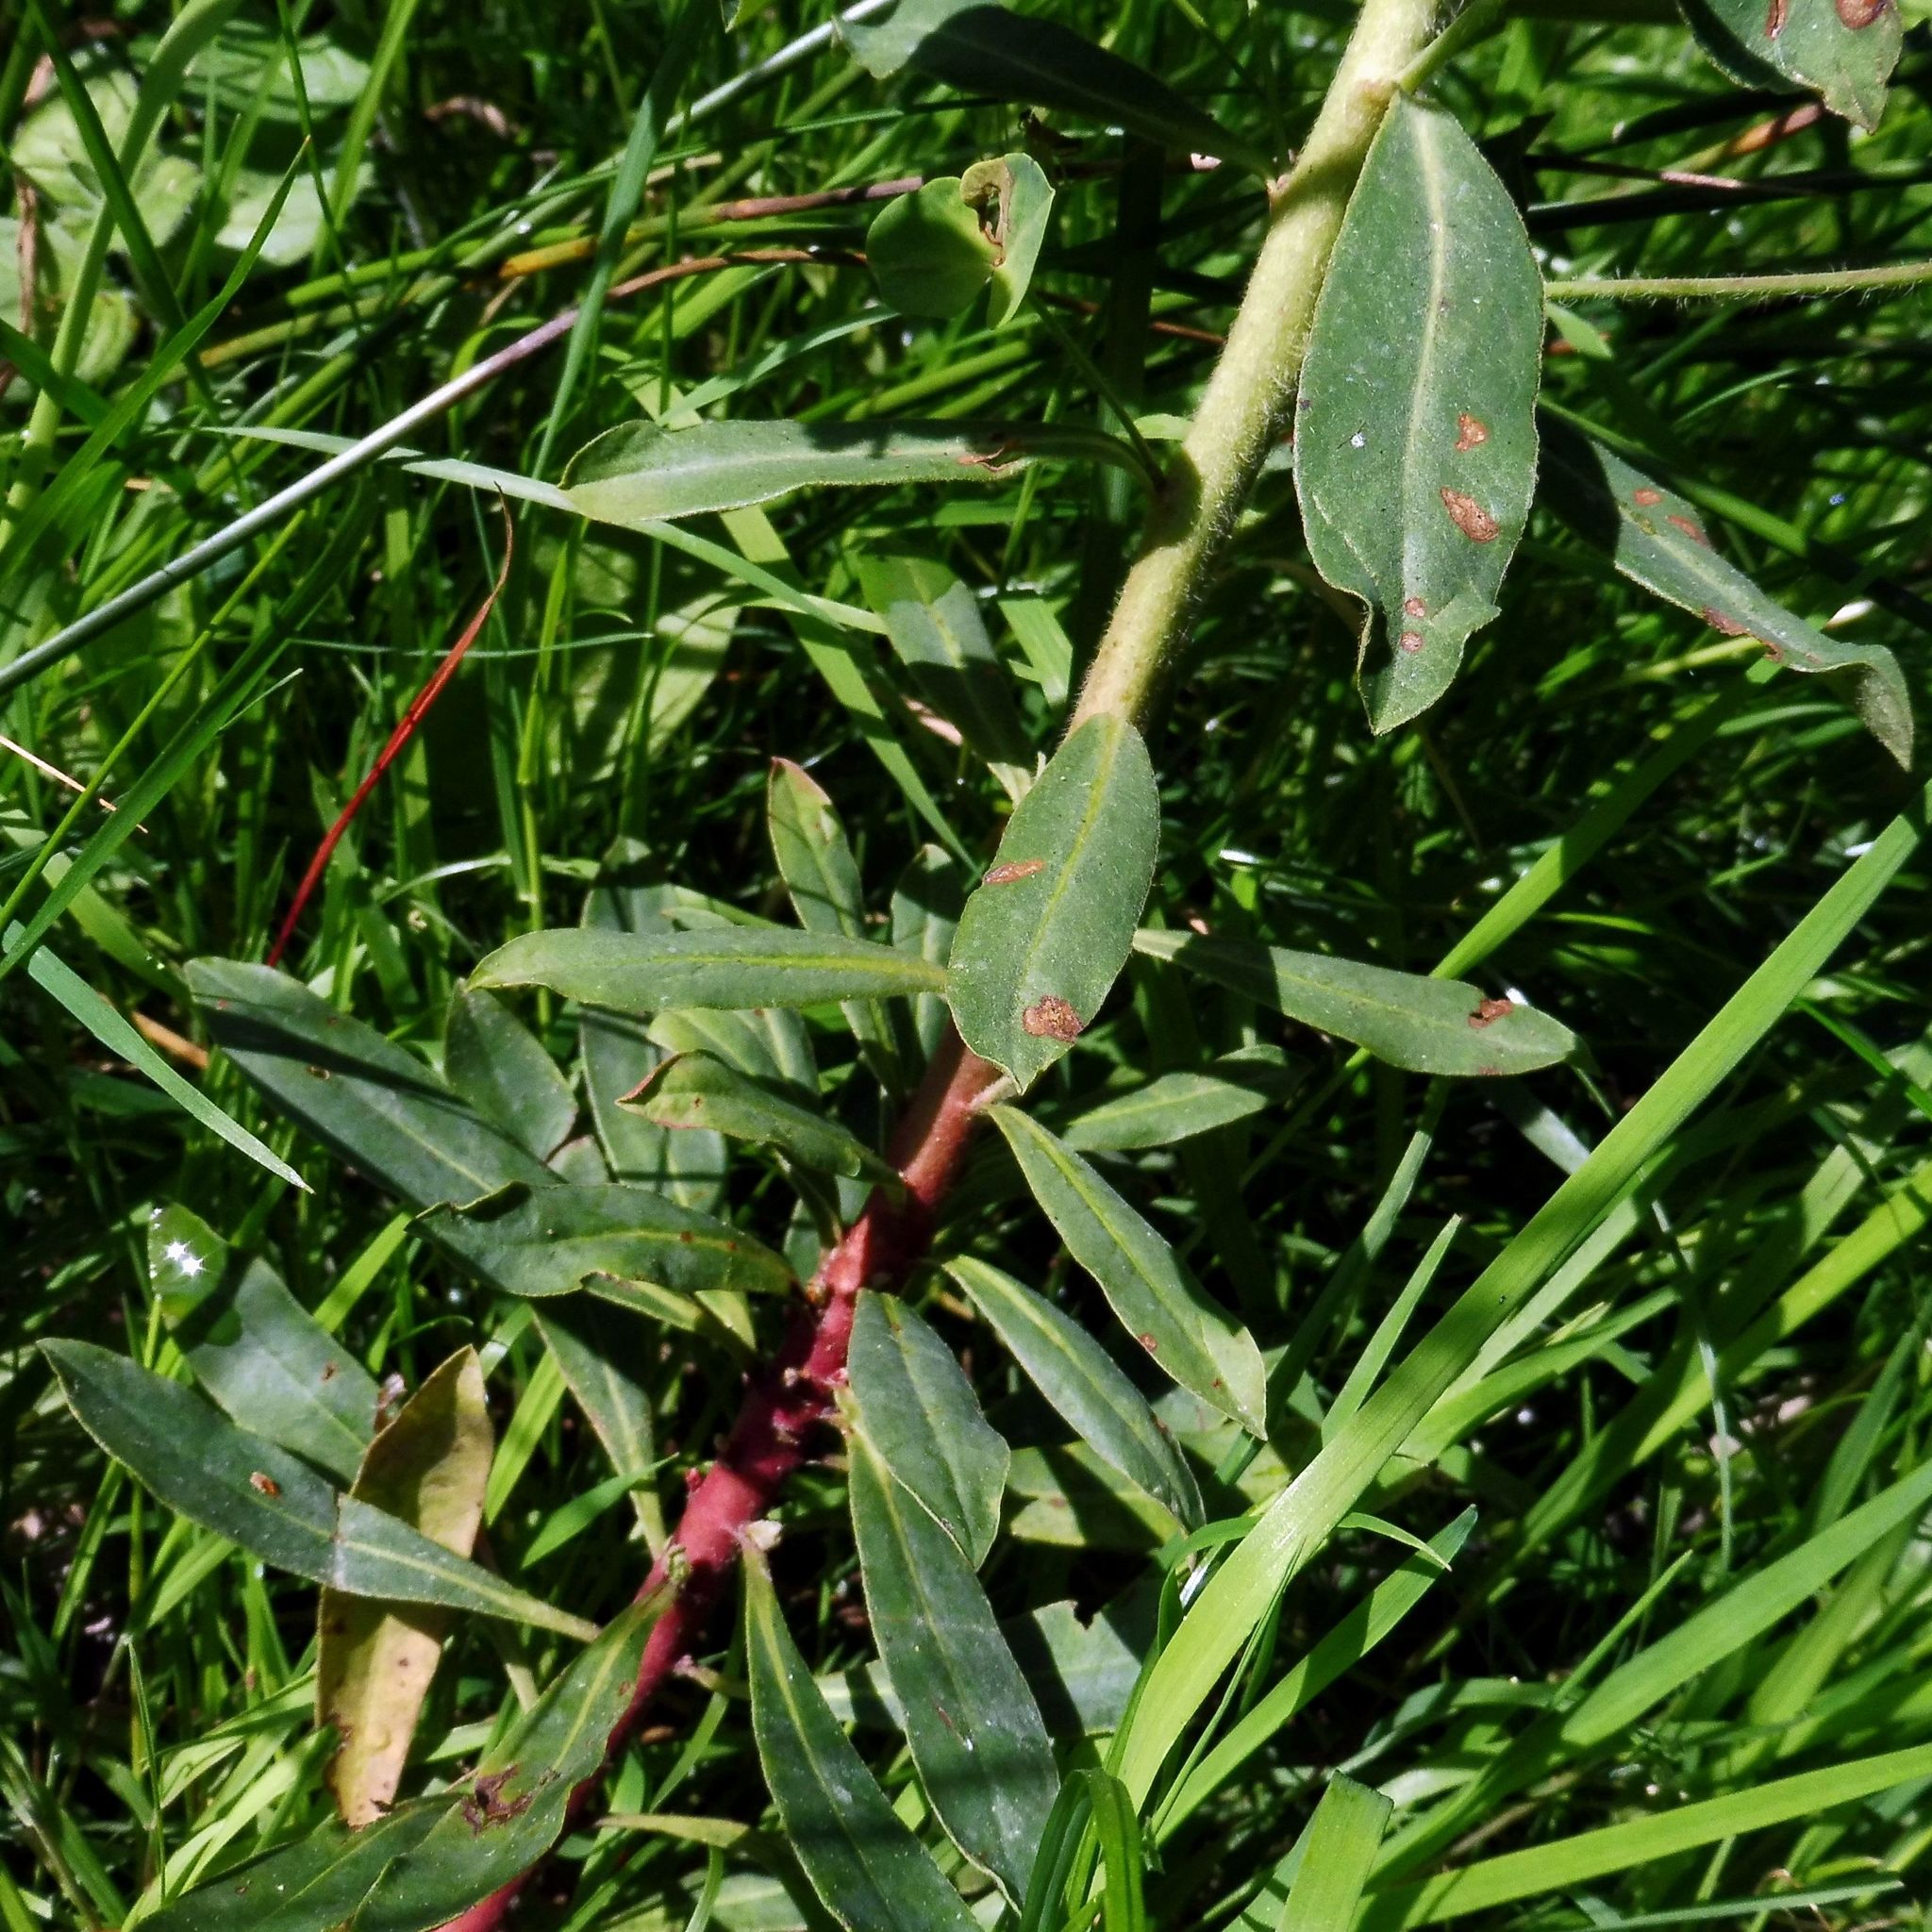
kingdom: Plantae
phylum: Tracheophyta
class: Magnoliopsida
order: Malpighiales
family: Euphorbiaceae
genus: Euphorbia
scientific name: Euphorbia amygdaloides
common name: Wood spurge
